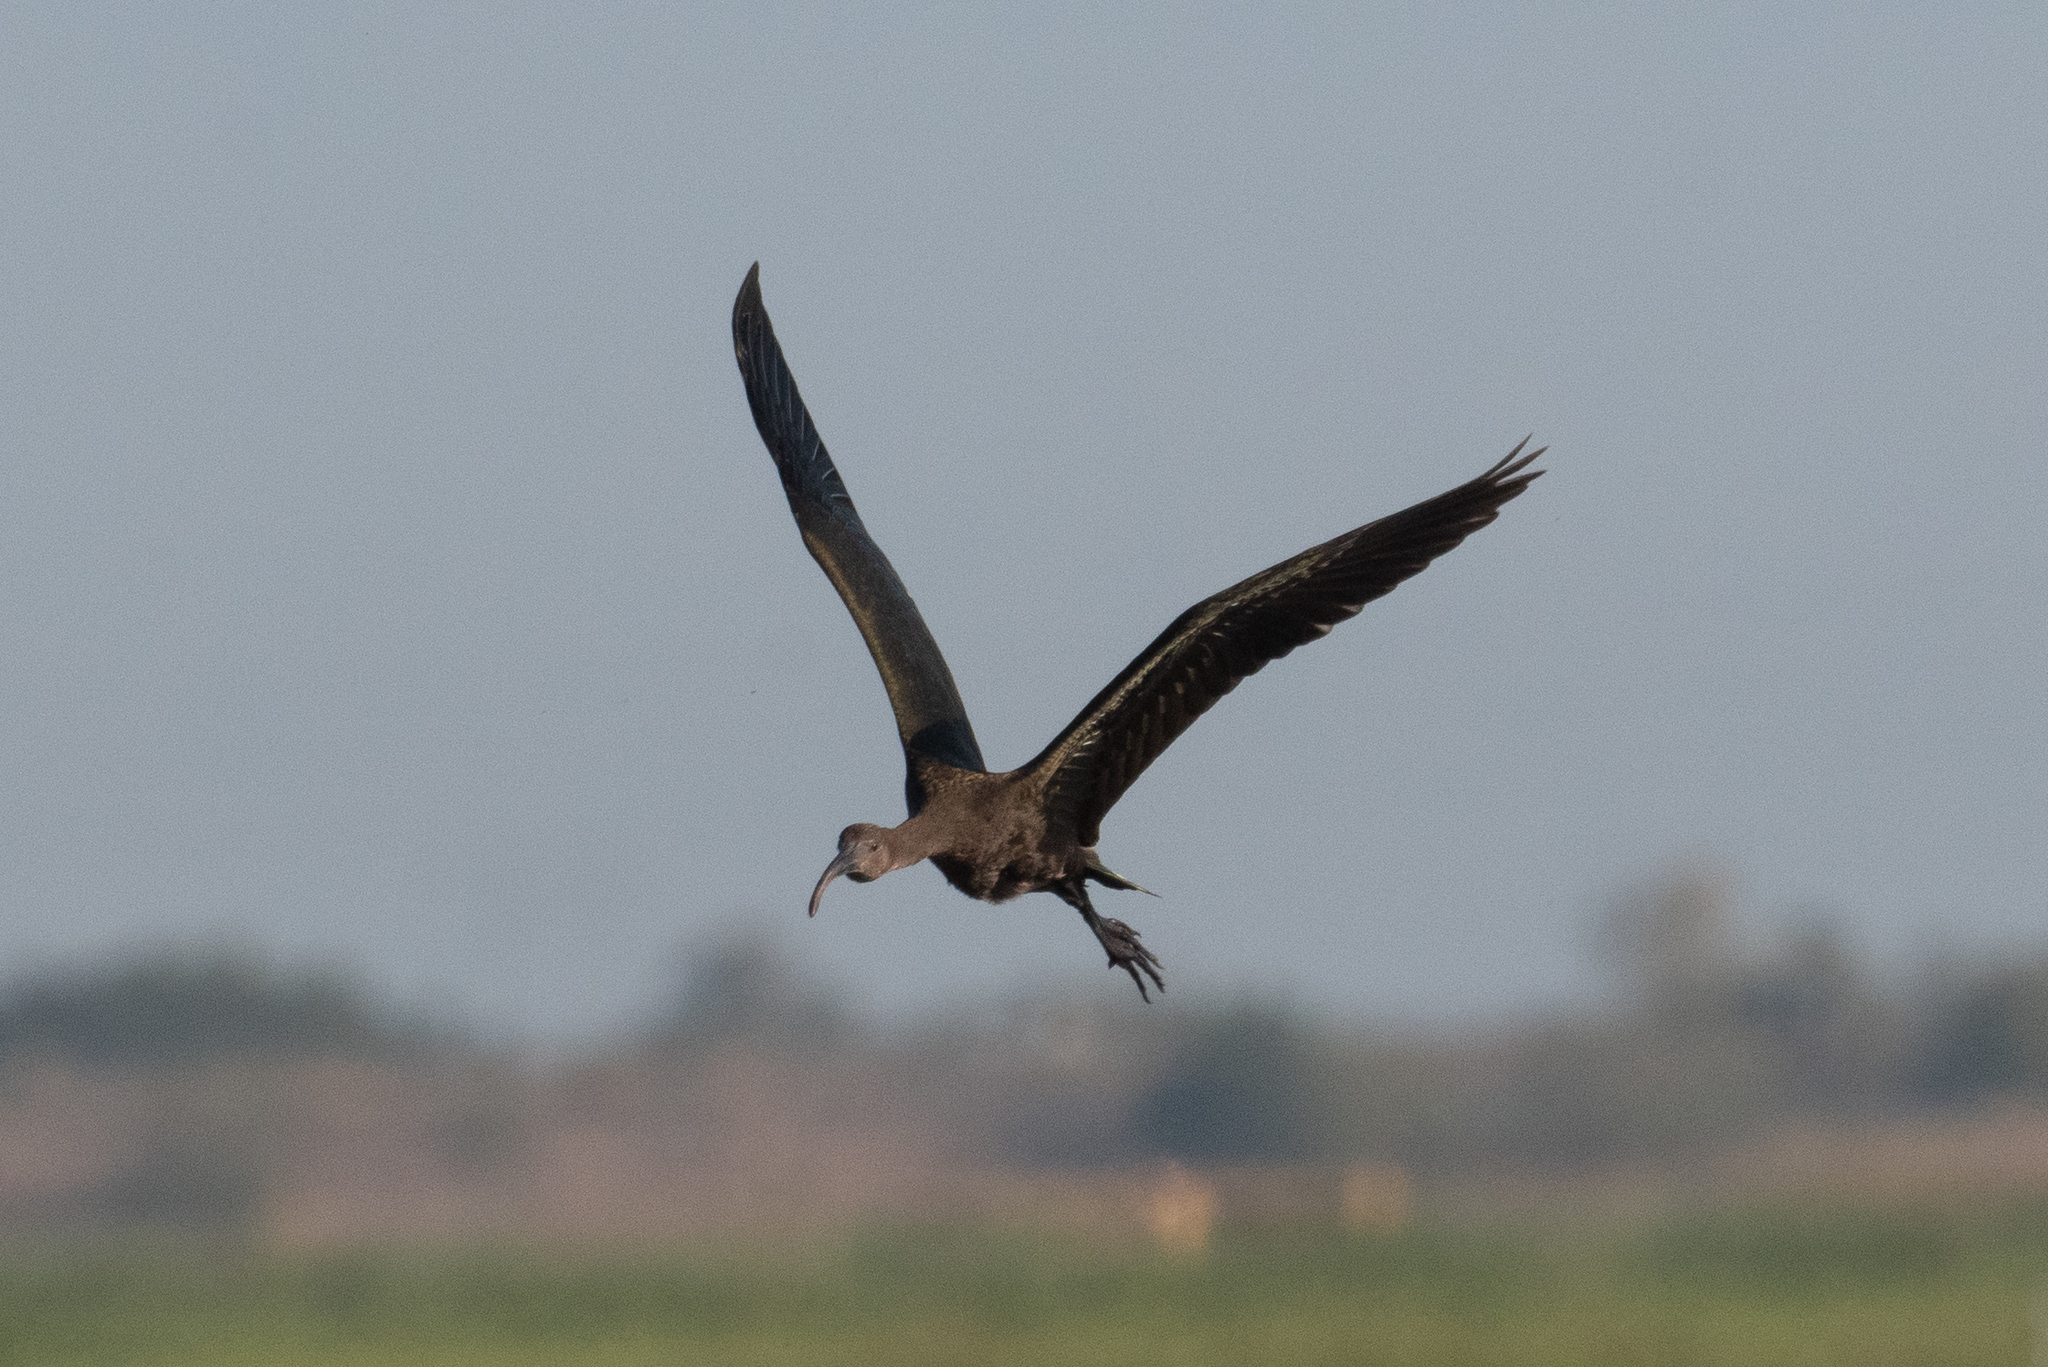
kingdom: Animalia
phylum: Chordata
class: Aves
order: Pelecaniformes
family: Threskiornithidae
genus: Plegadis
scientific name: Plegadis chihi
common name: White-faced ibis
